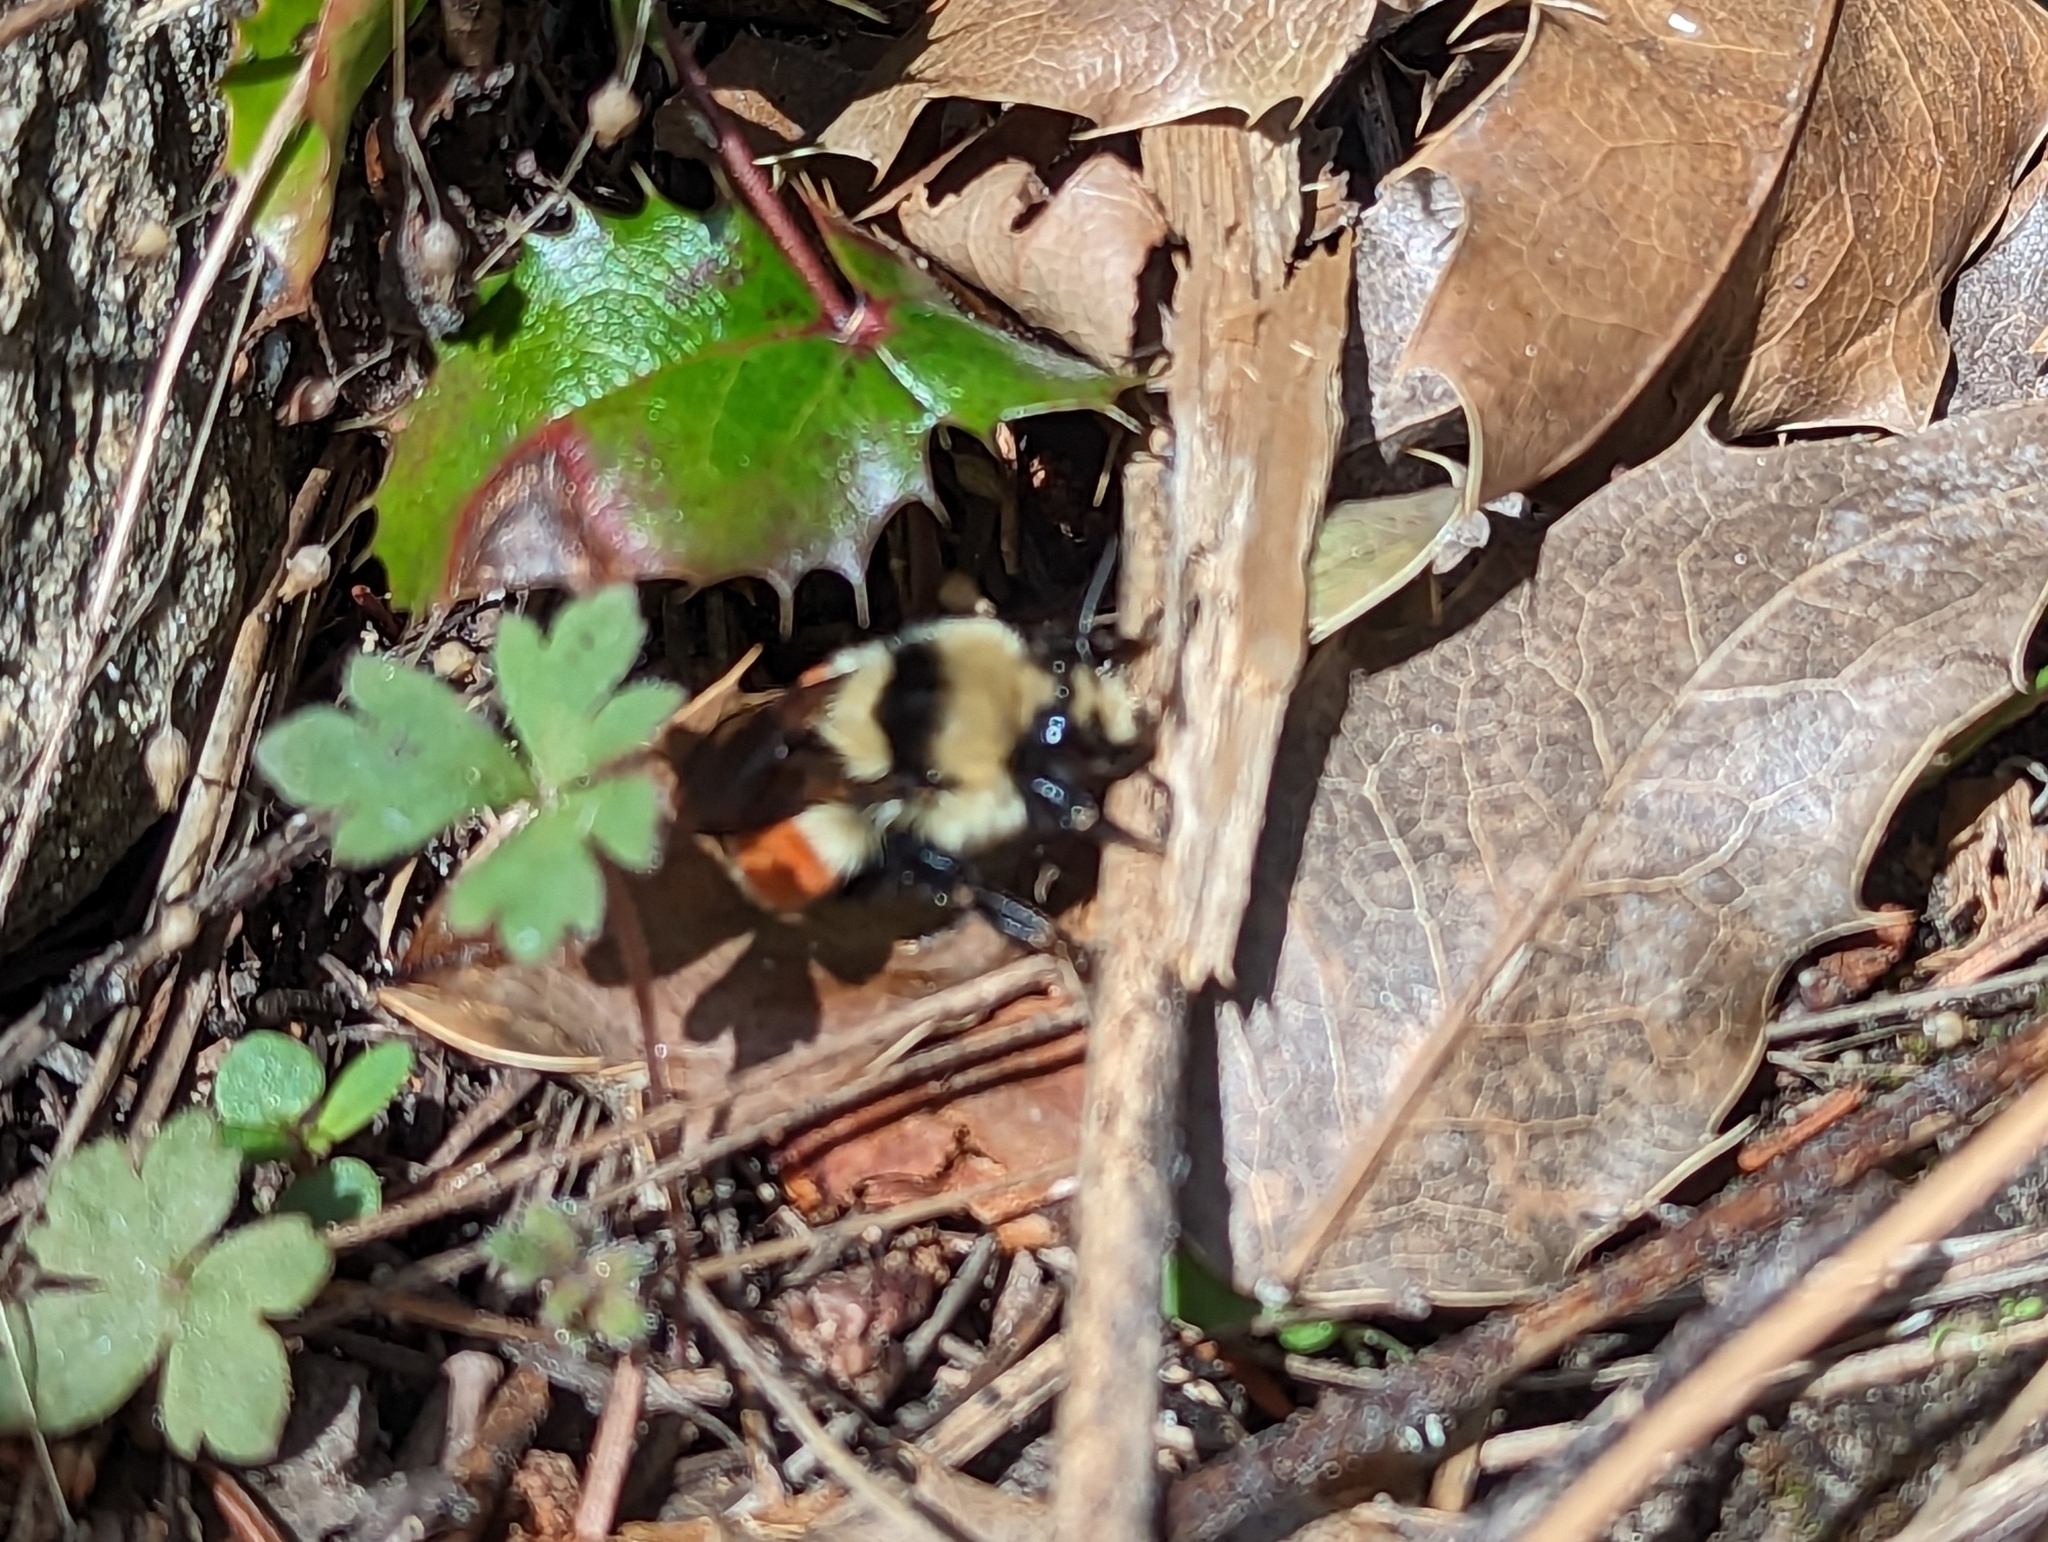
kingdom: Animalia
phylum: Arthropoda
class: Insecta
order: Hymenoptera
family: Apidae
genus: Bombus
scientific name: Bombus huntii
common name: Hunt bumble bee
